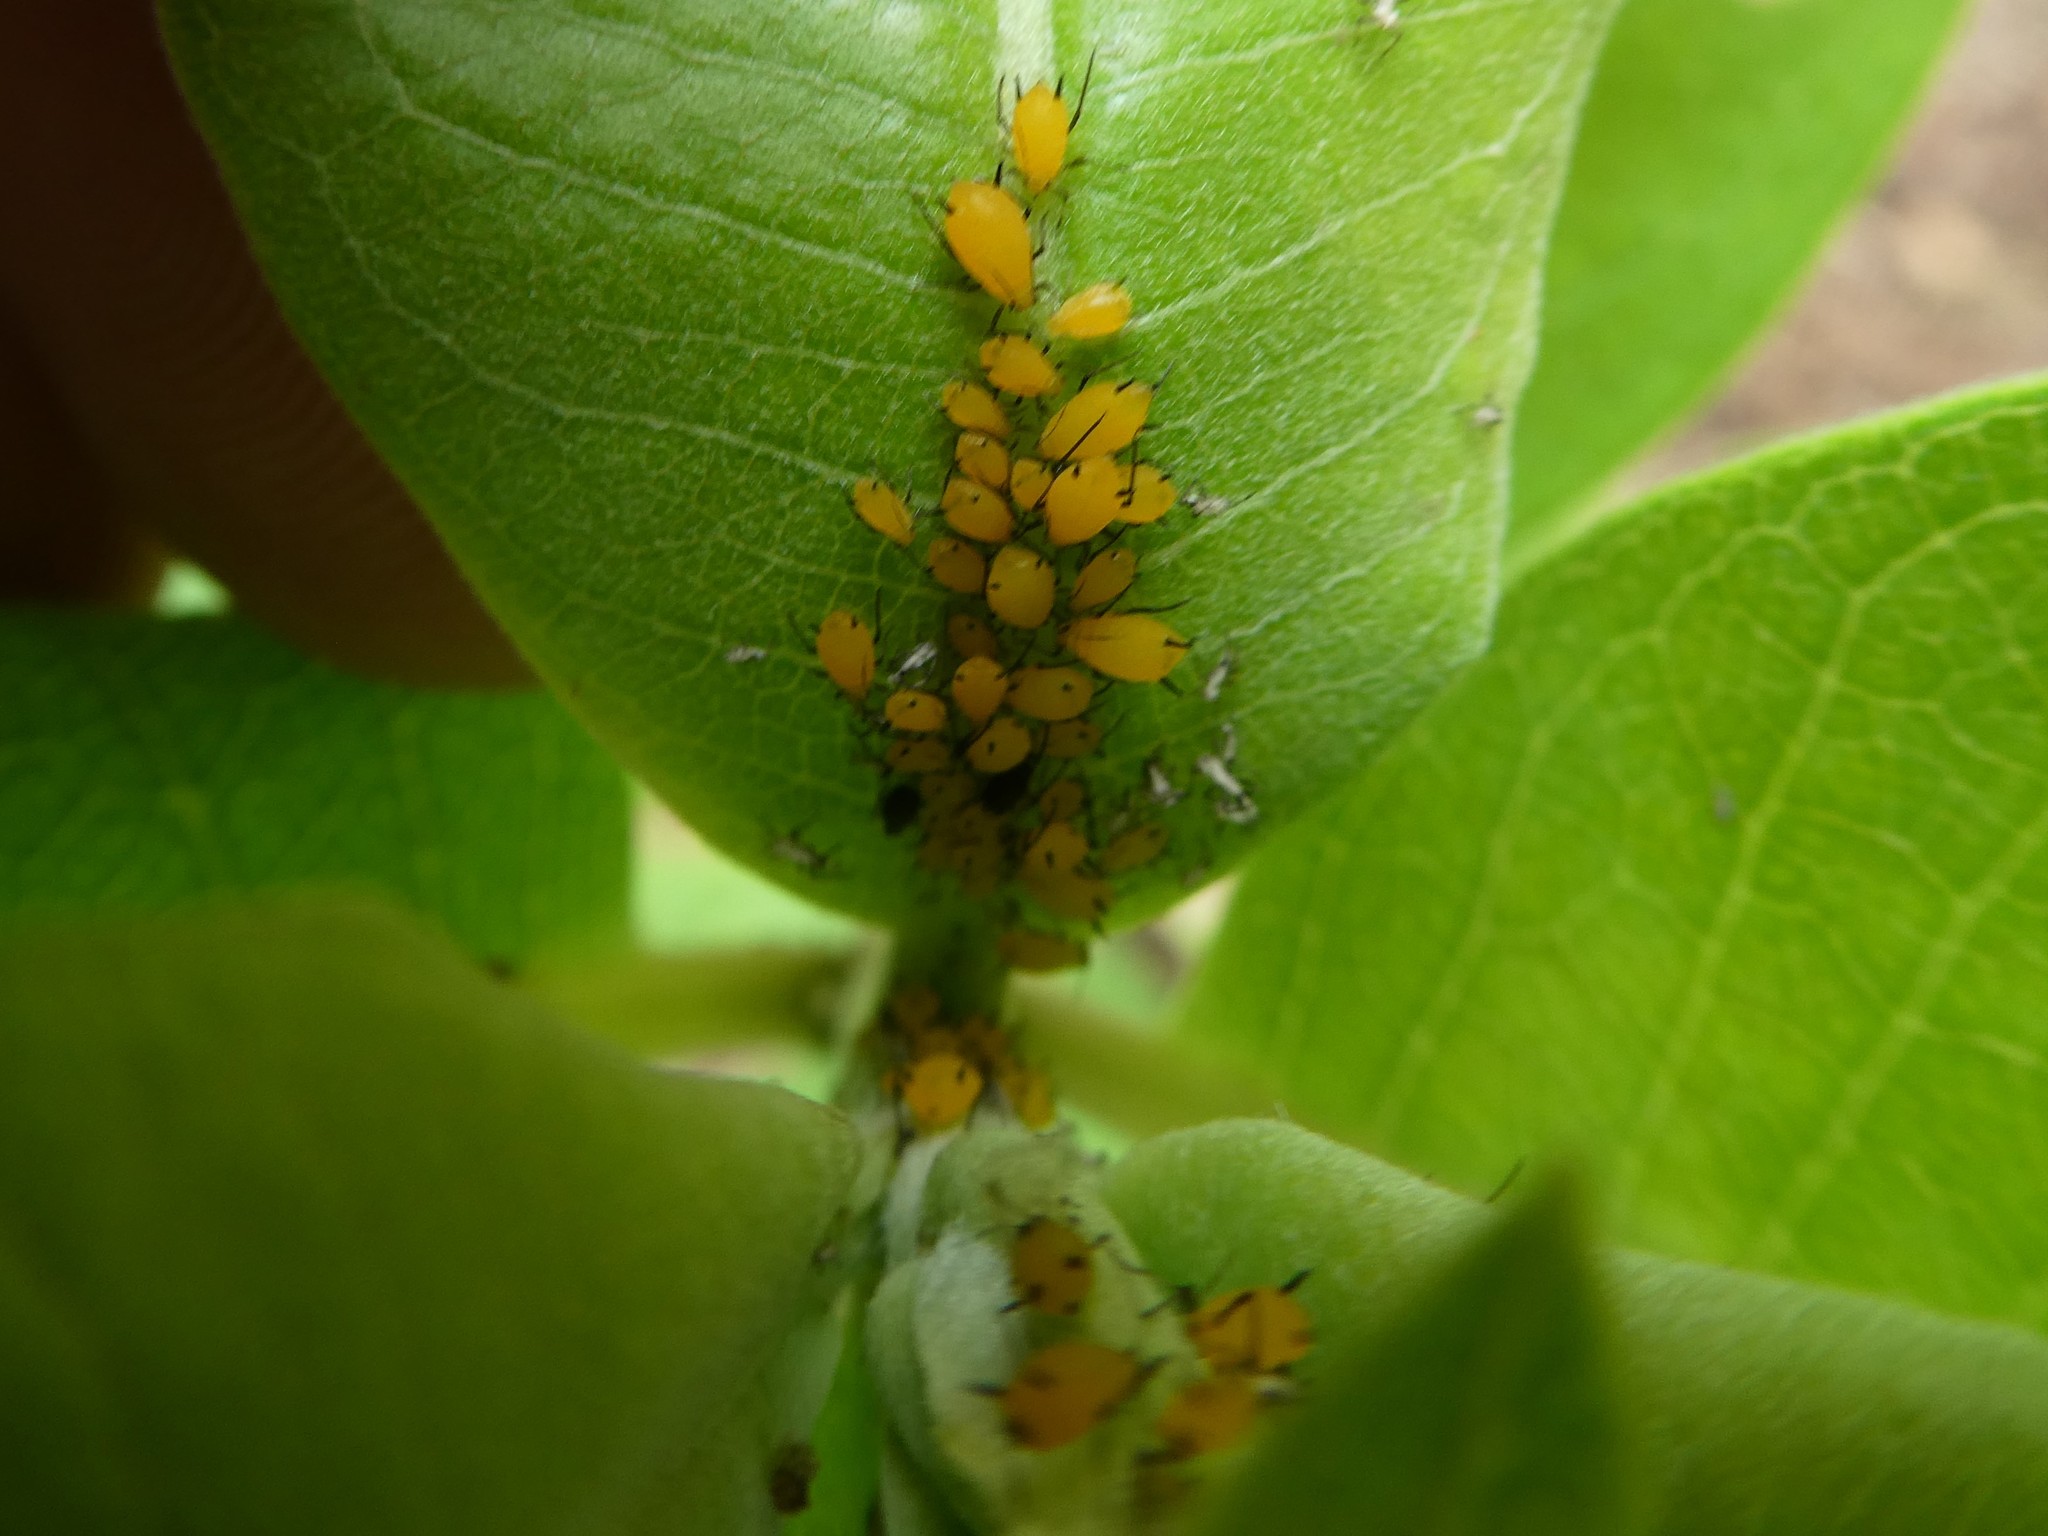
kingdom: Animalia
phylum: Arthropoda
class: Insecta
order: Hemiptera
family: Aphididae
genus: Aphis
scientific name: Aphis nerii
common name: Oleander aphid
